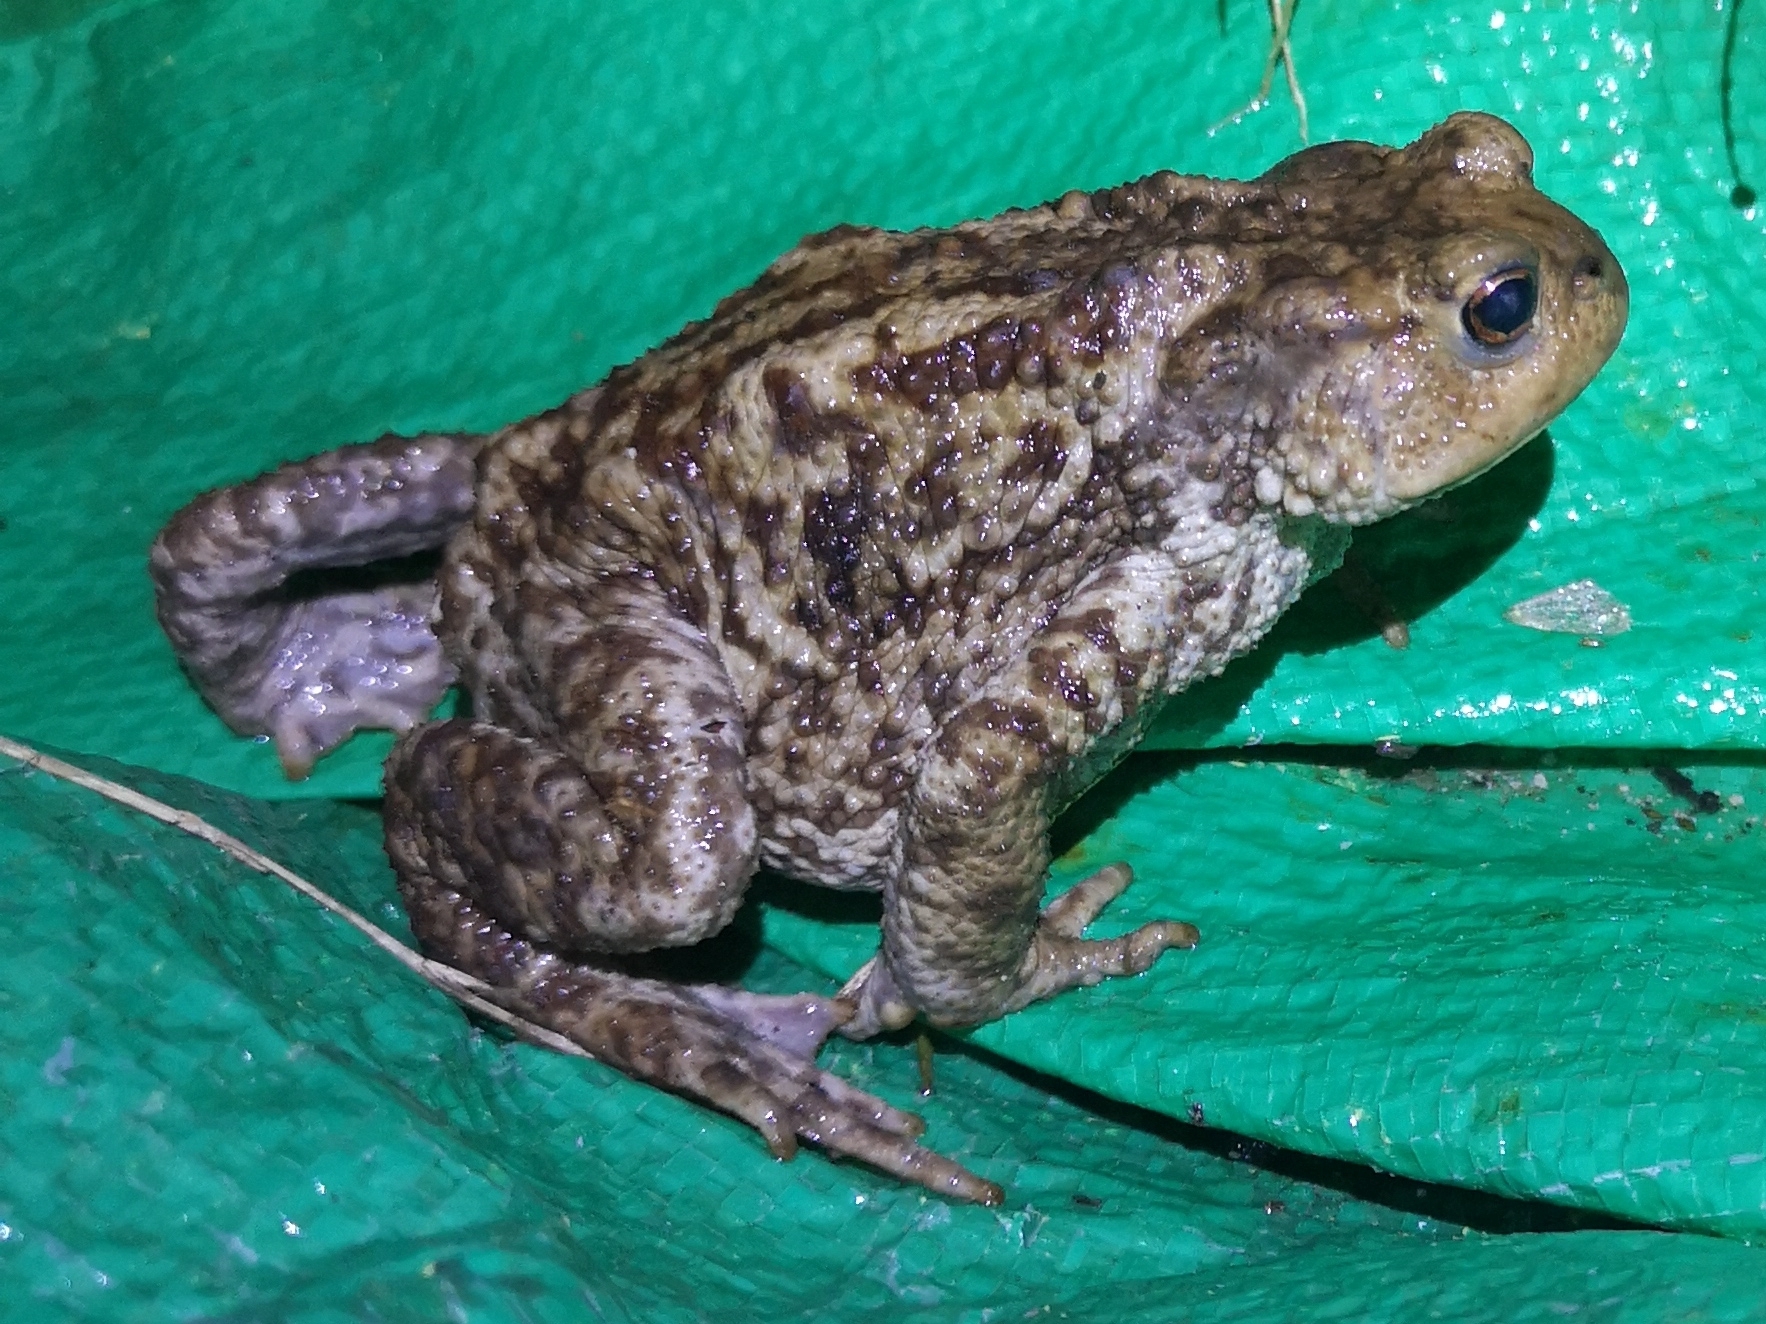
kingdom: Animalia
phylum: Chordata
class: Amphibia
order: Anura
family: Bufonidae
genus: Bufo
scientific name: Bufo bufo
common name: Common toad
